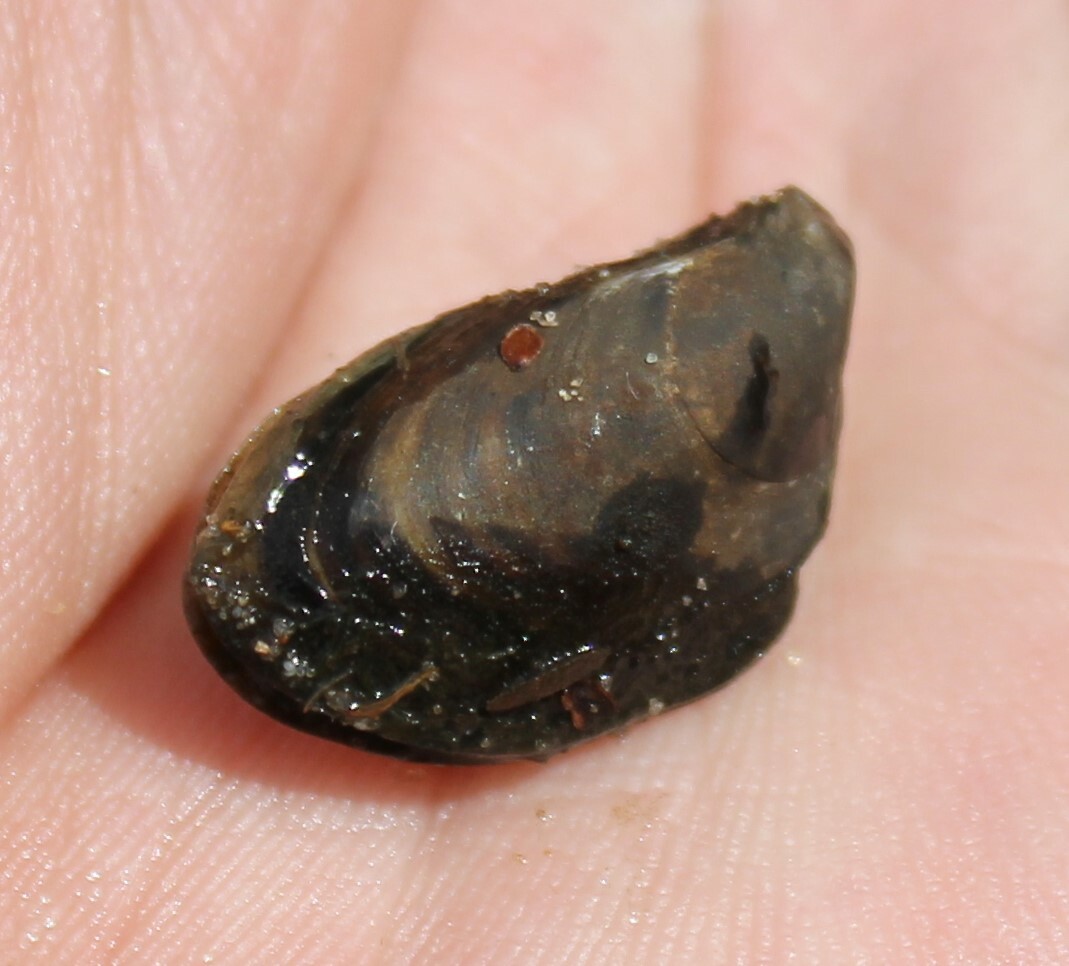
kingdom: Animalia
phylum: Mollusca
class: Bivalvia
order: Myida
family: Dreissenidae
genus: Dreissena
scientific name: Dreissena bugensis
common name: Quagga mussel
